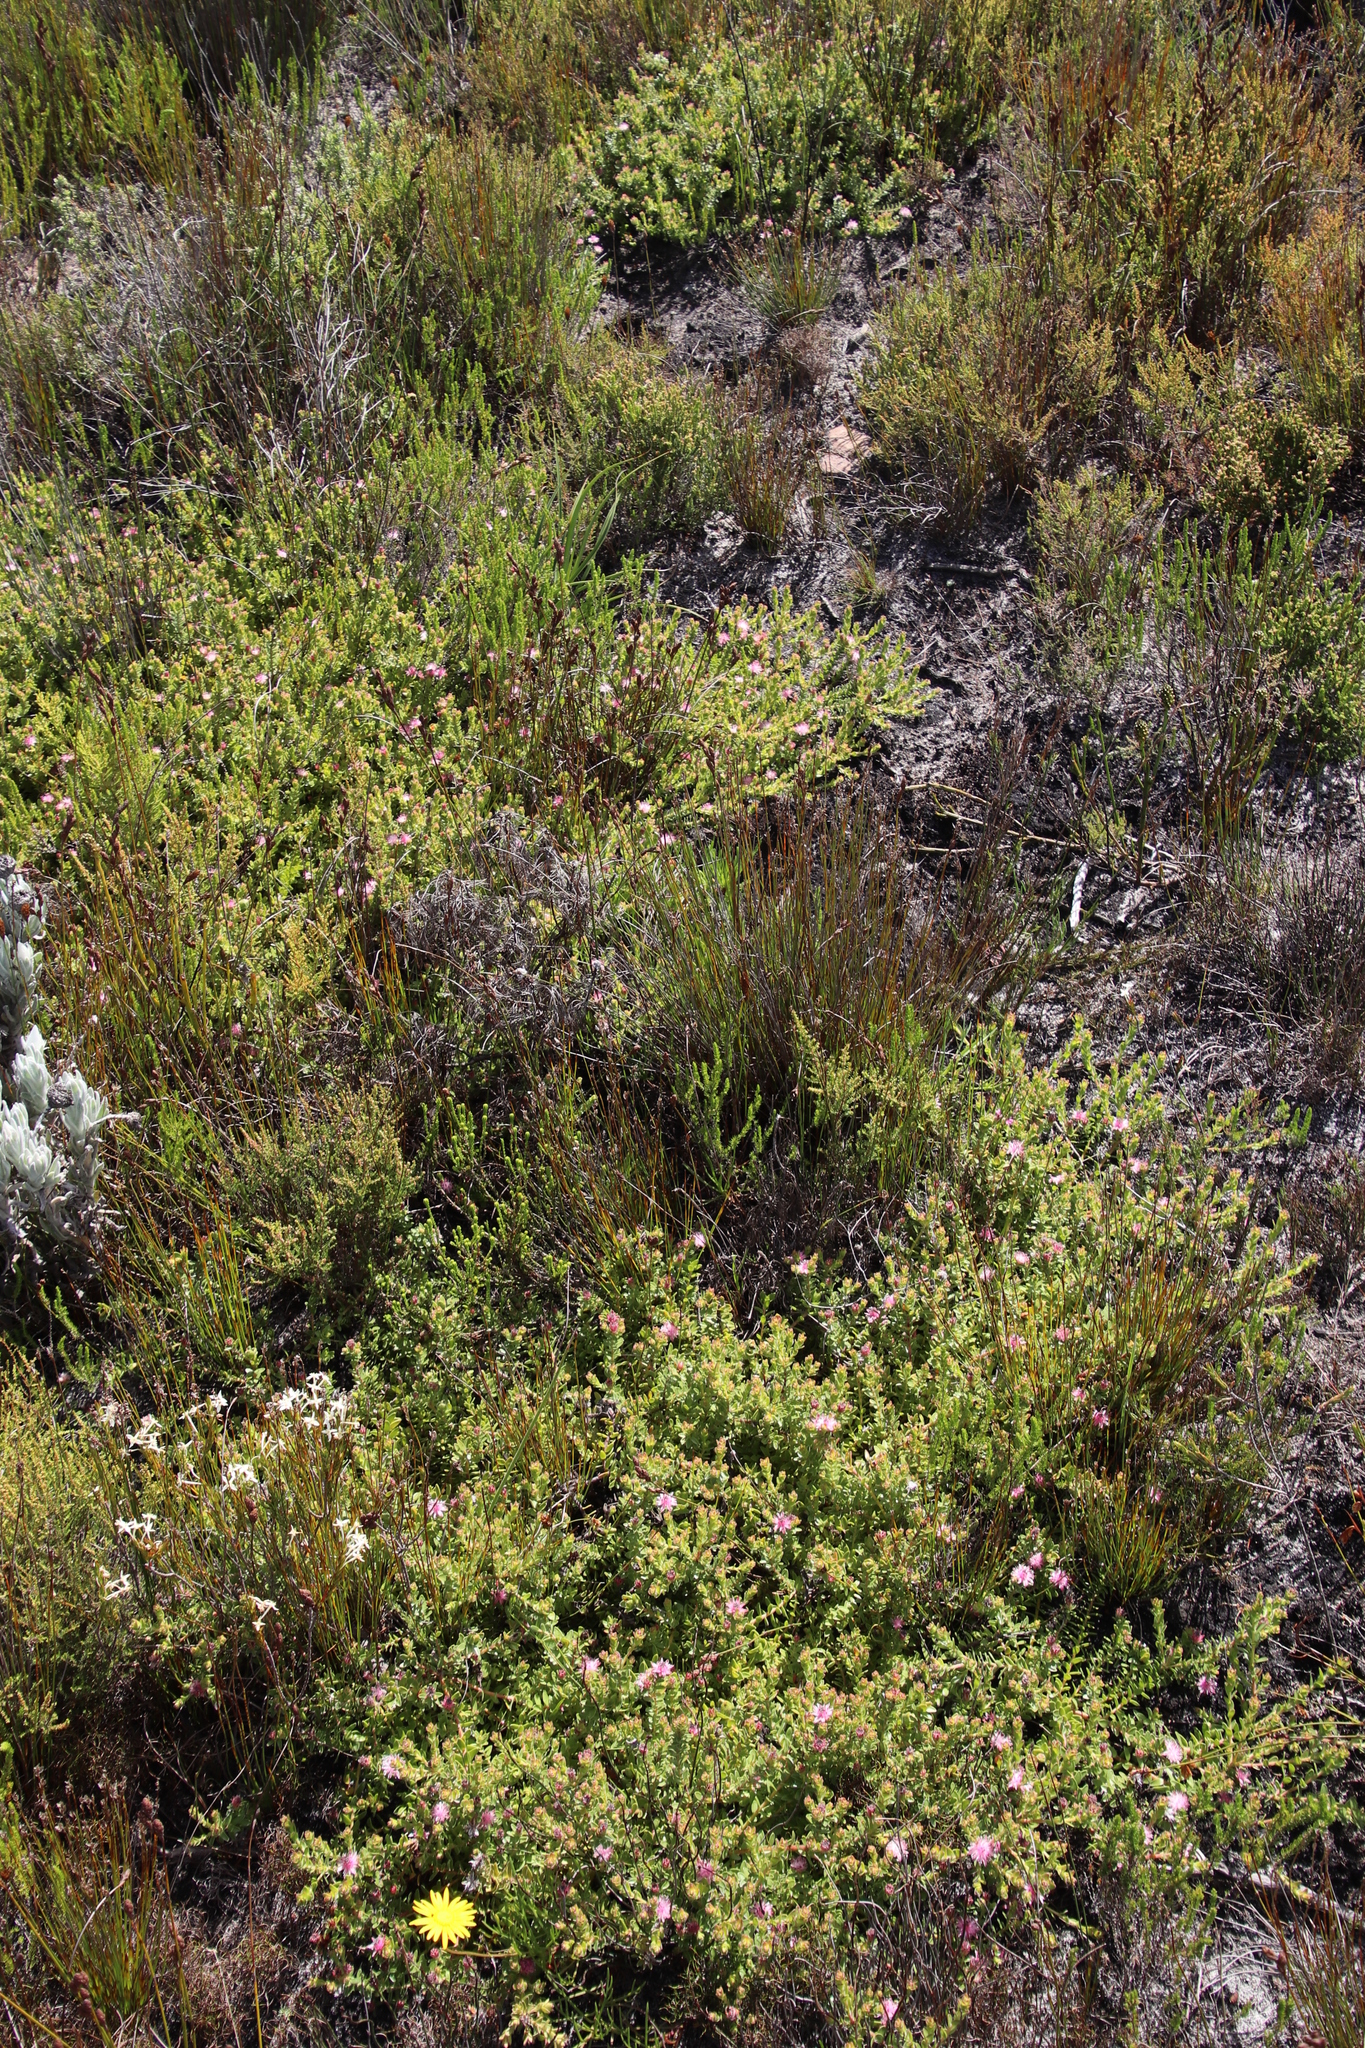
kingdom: Plantae
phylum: Tracheophyta
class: Magnoliopsida
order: Proteales
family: Proteaceae
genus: Diastella
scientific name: Diastella divaricata
